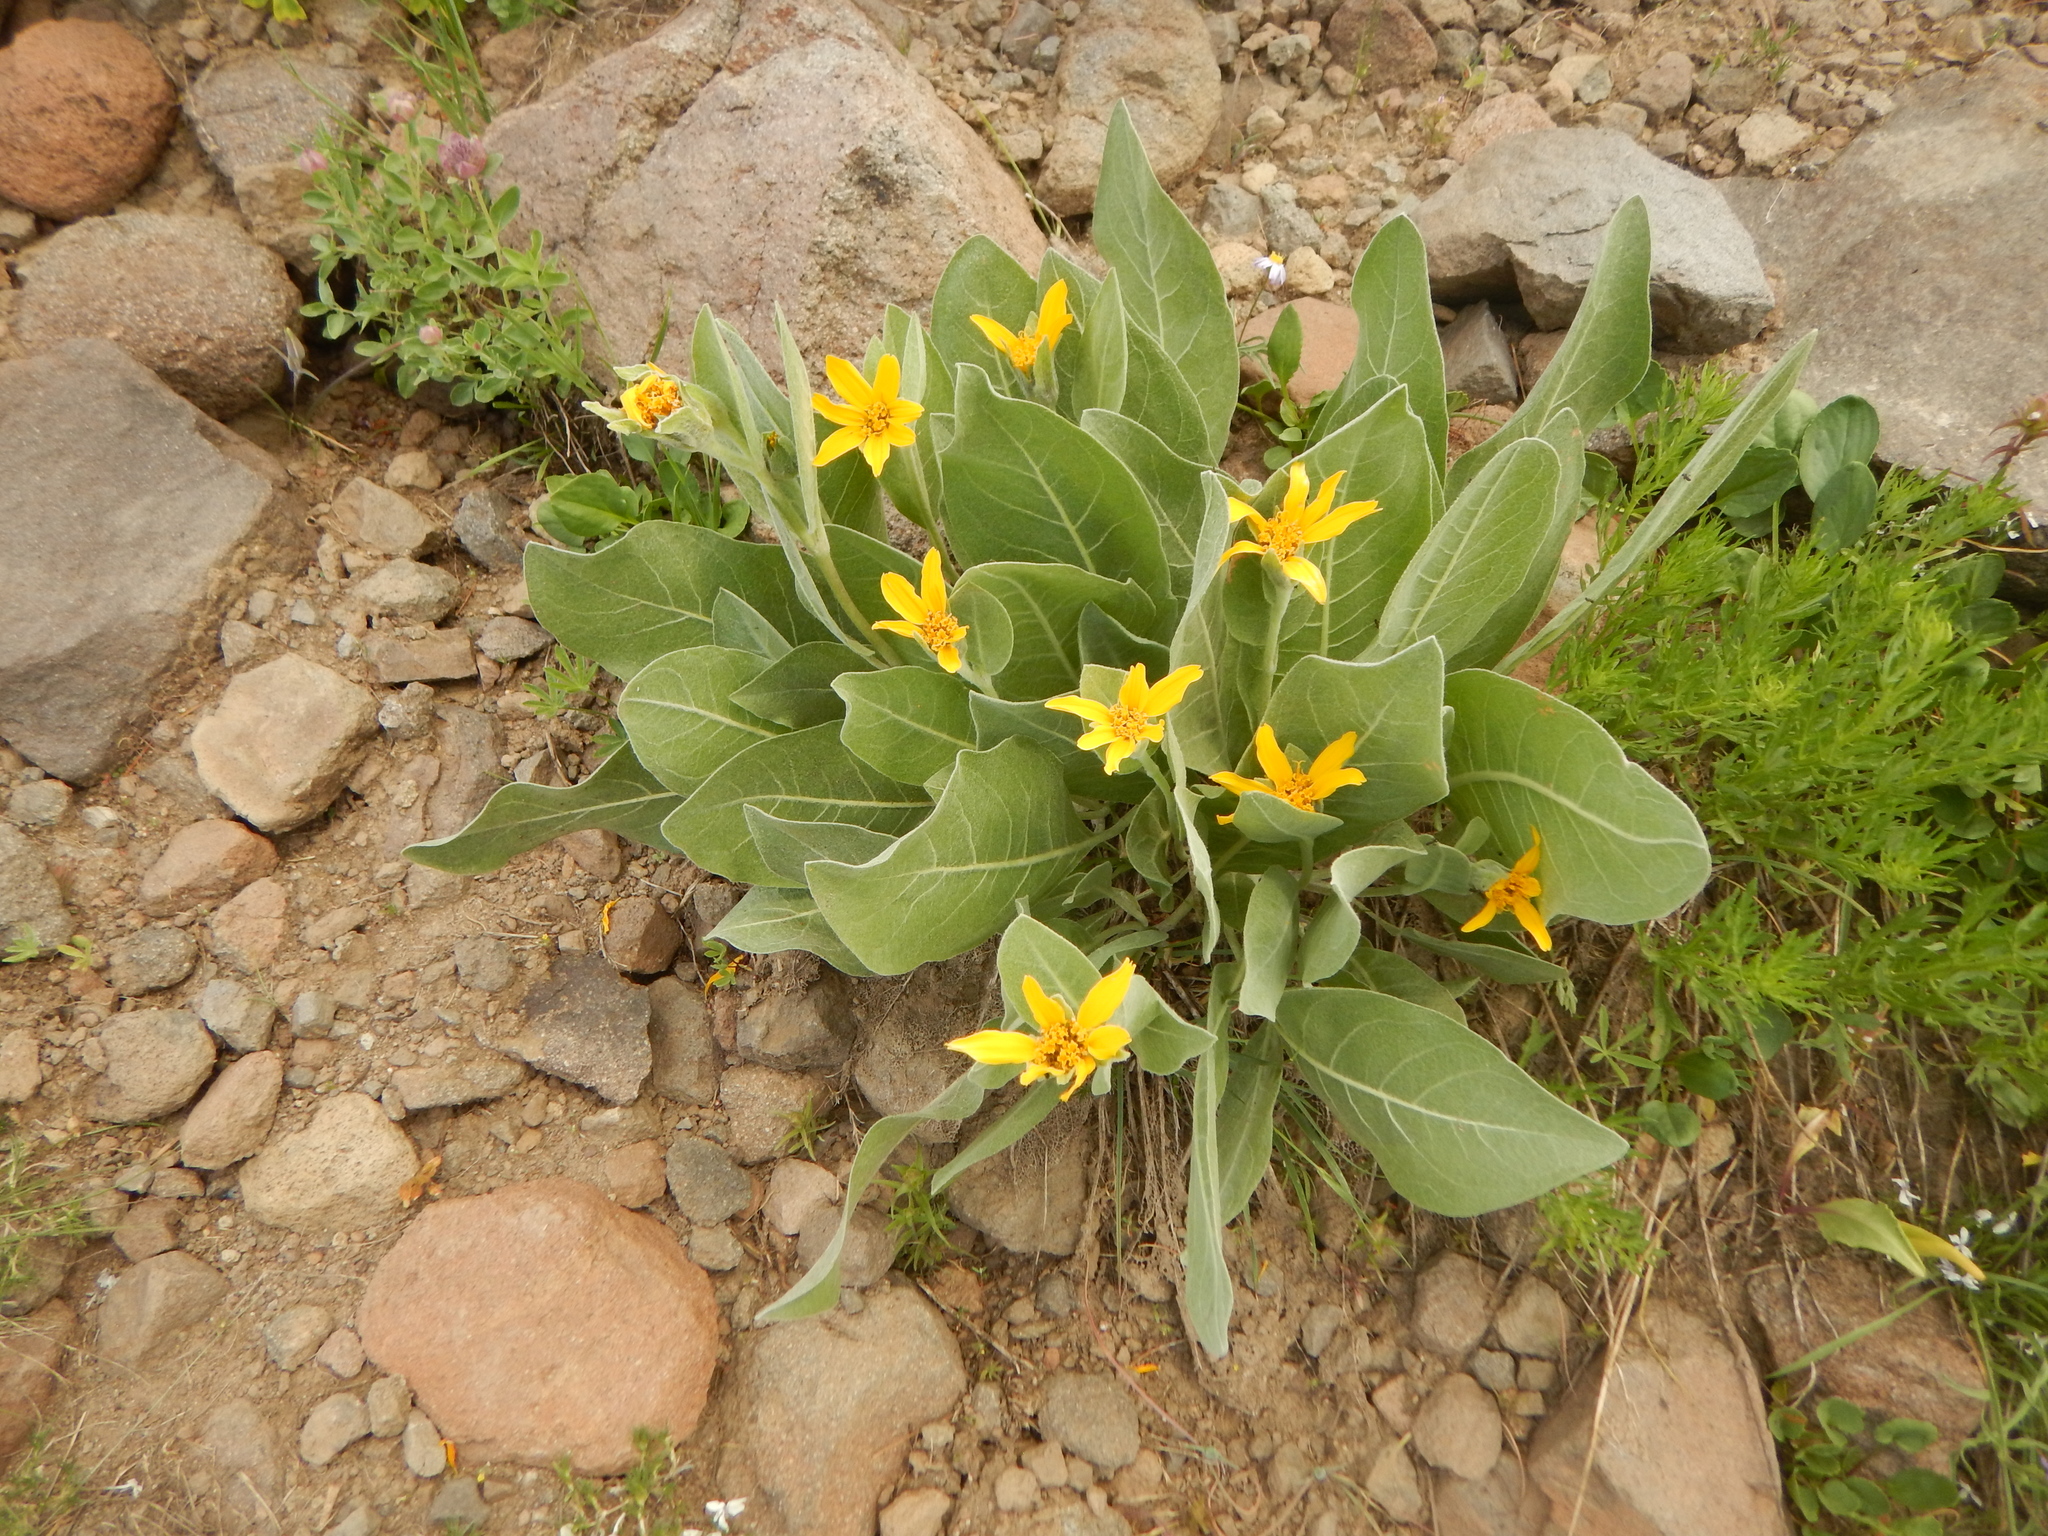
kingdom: Plantae
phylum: Tracheophyta
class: Magnoliopsida
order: Asterales
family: Asteraceae
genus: Wyethia
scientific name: Wyethia mollis
